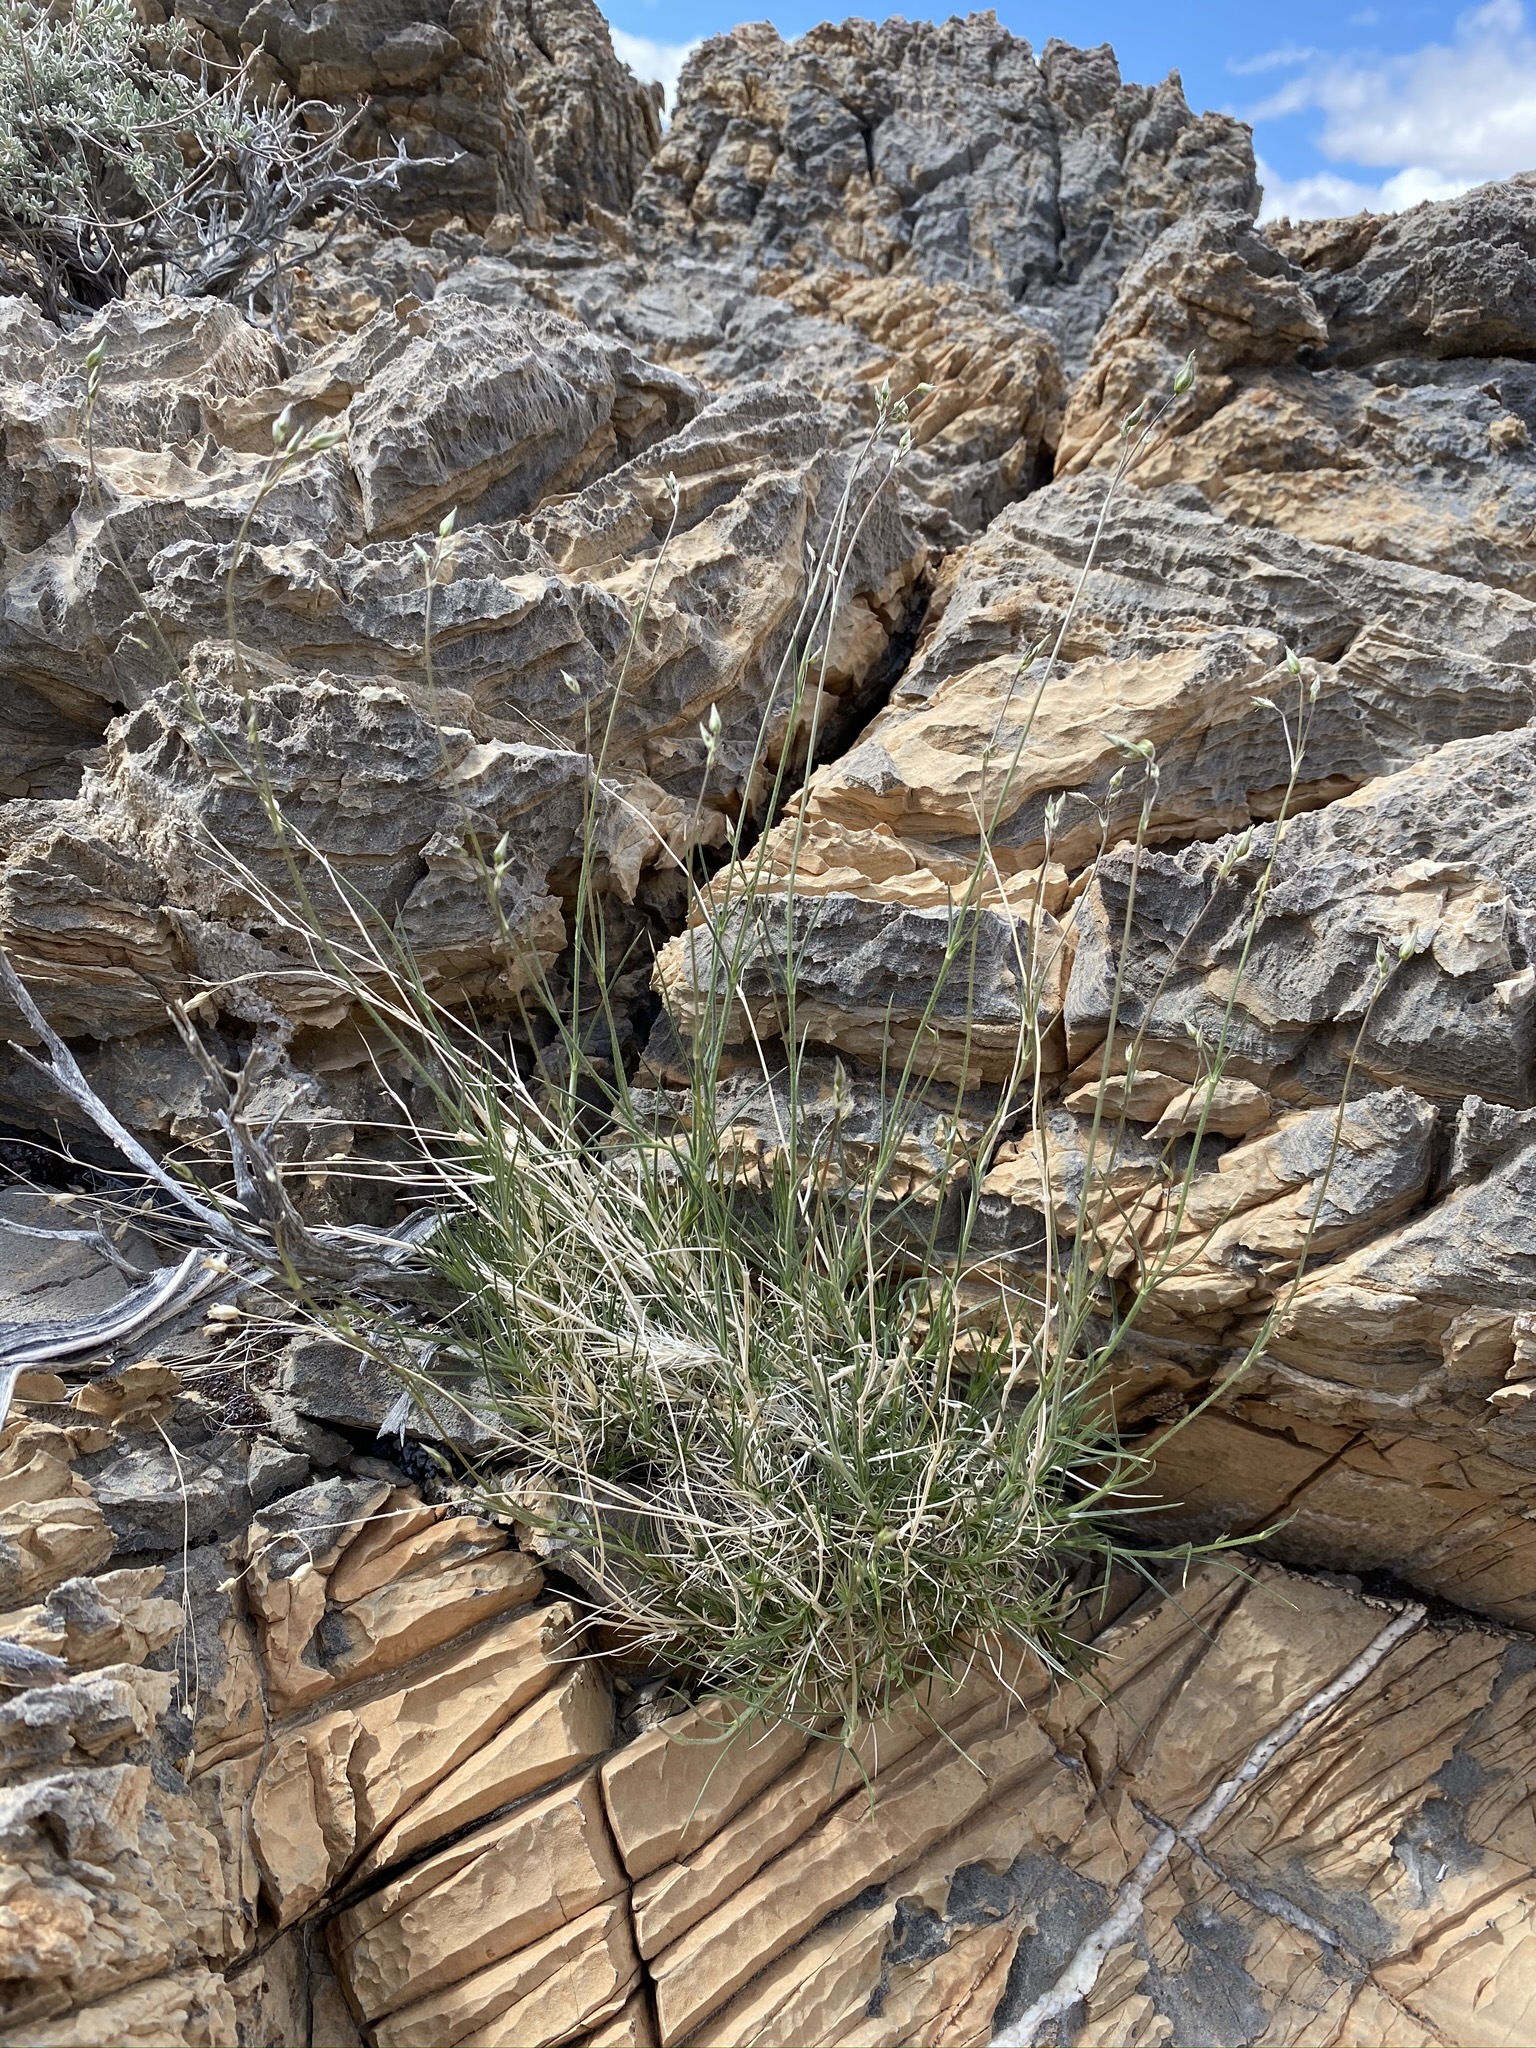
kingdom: Plantae
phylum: Tracheophyta
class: Magnoliopsida
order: Caryophyllales
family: Caryophyllaceae
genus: Eremogone
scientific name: Eremogone macradenia
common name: Mohave sandwort
